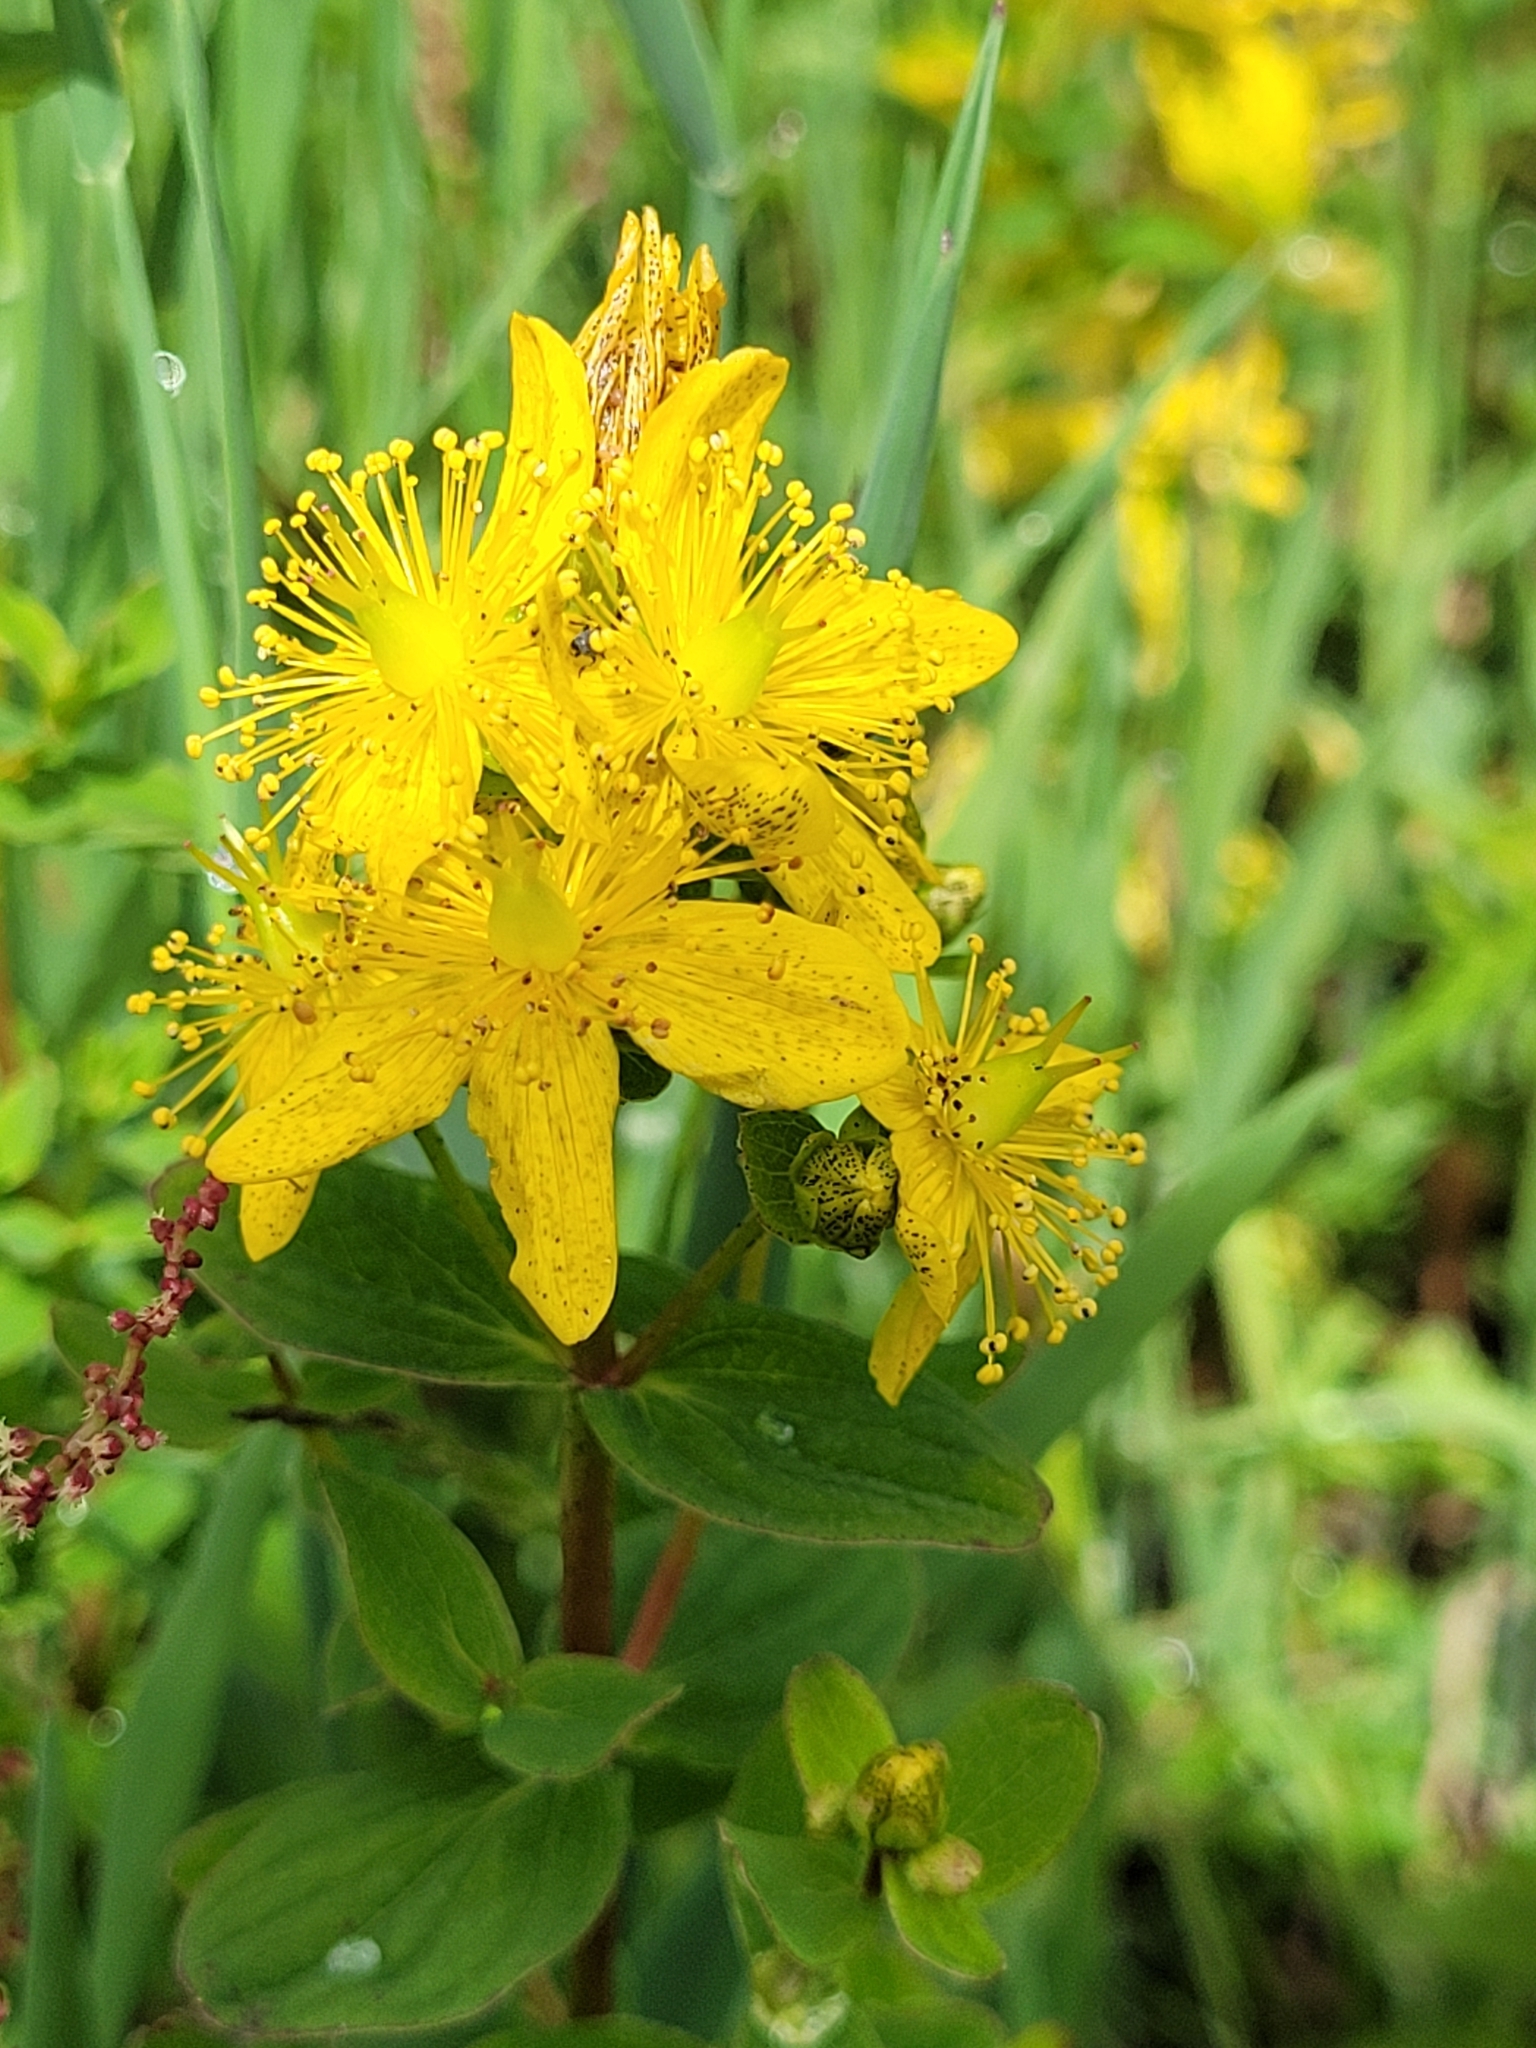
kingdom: Plantae
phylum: Tracheophyta
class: Magnoliopsida
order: Malpighiales
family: Hypericaceae
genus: Hypericum
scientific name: Hypericum maculatum
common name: Imperforate st. john's-wort
